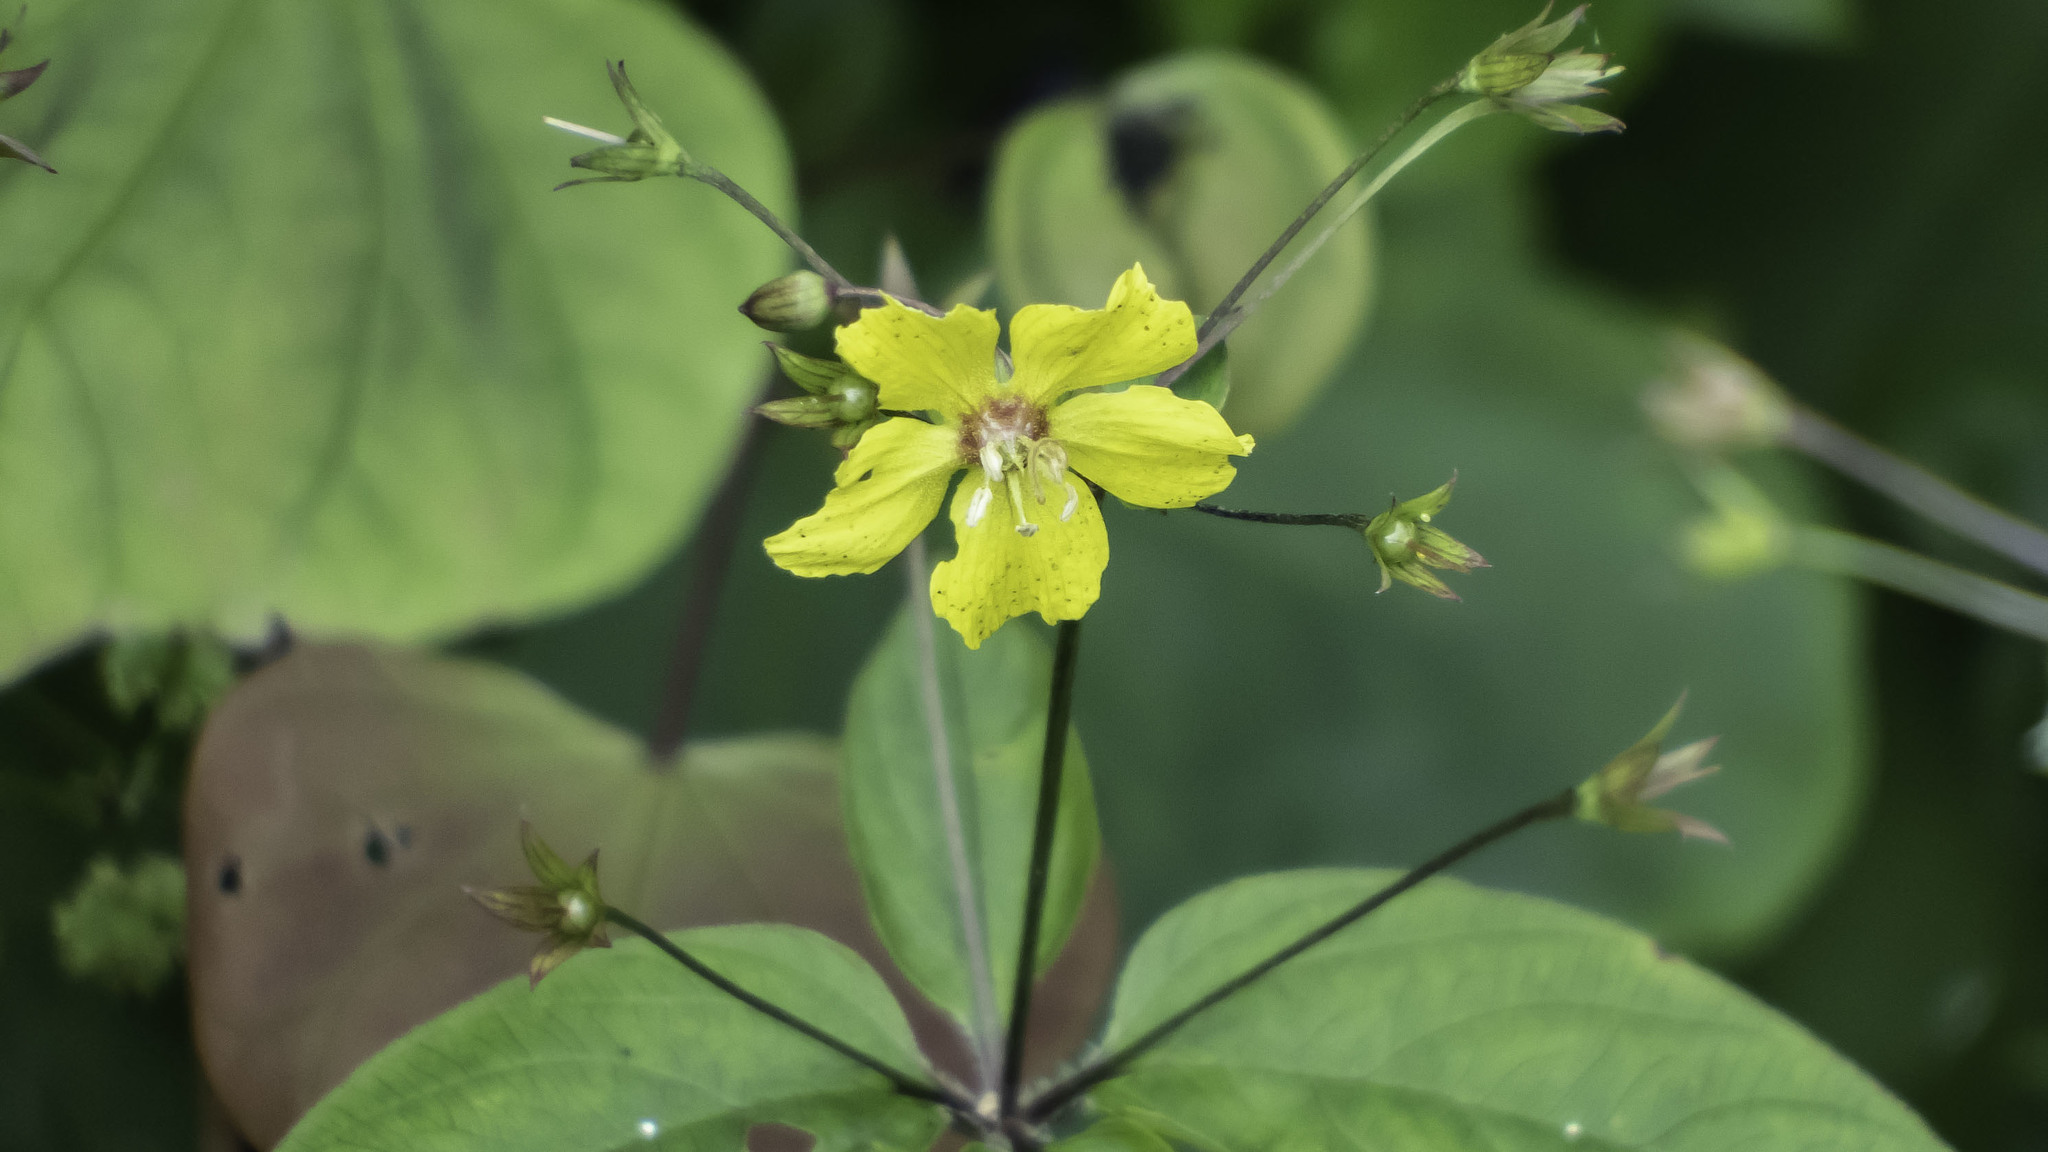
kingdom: Plantae
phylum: Tracheophyta
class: Magnoliopsida
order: Ericales
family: Primulaceae
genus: Lysimachia
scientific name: Lysimachia ciliata
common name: Fringed loosestrife
